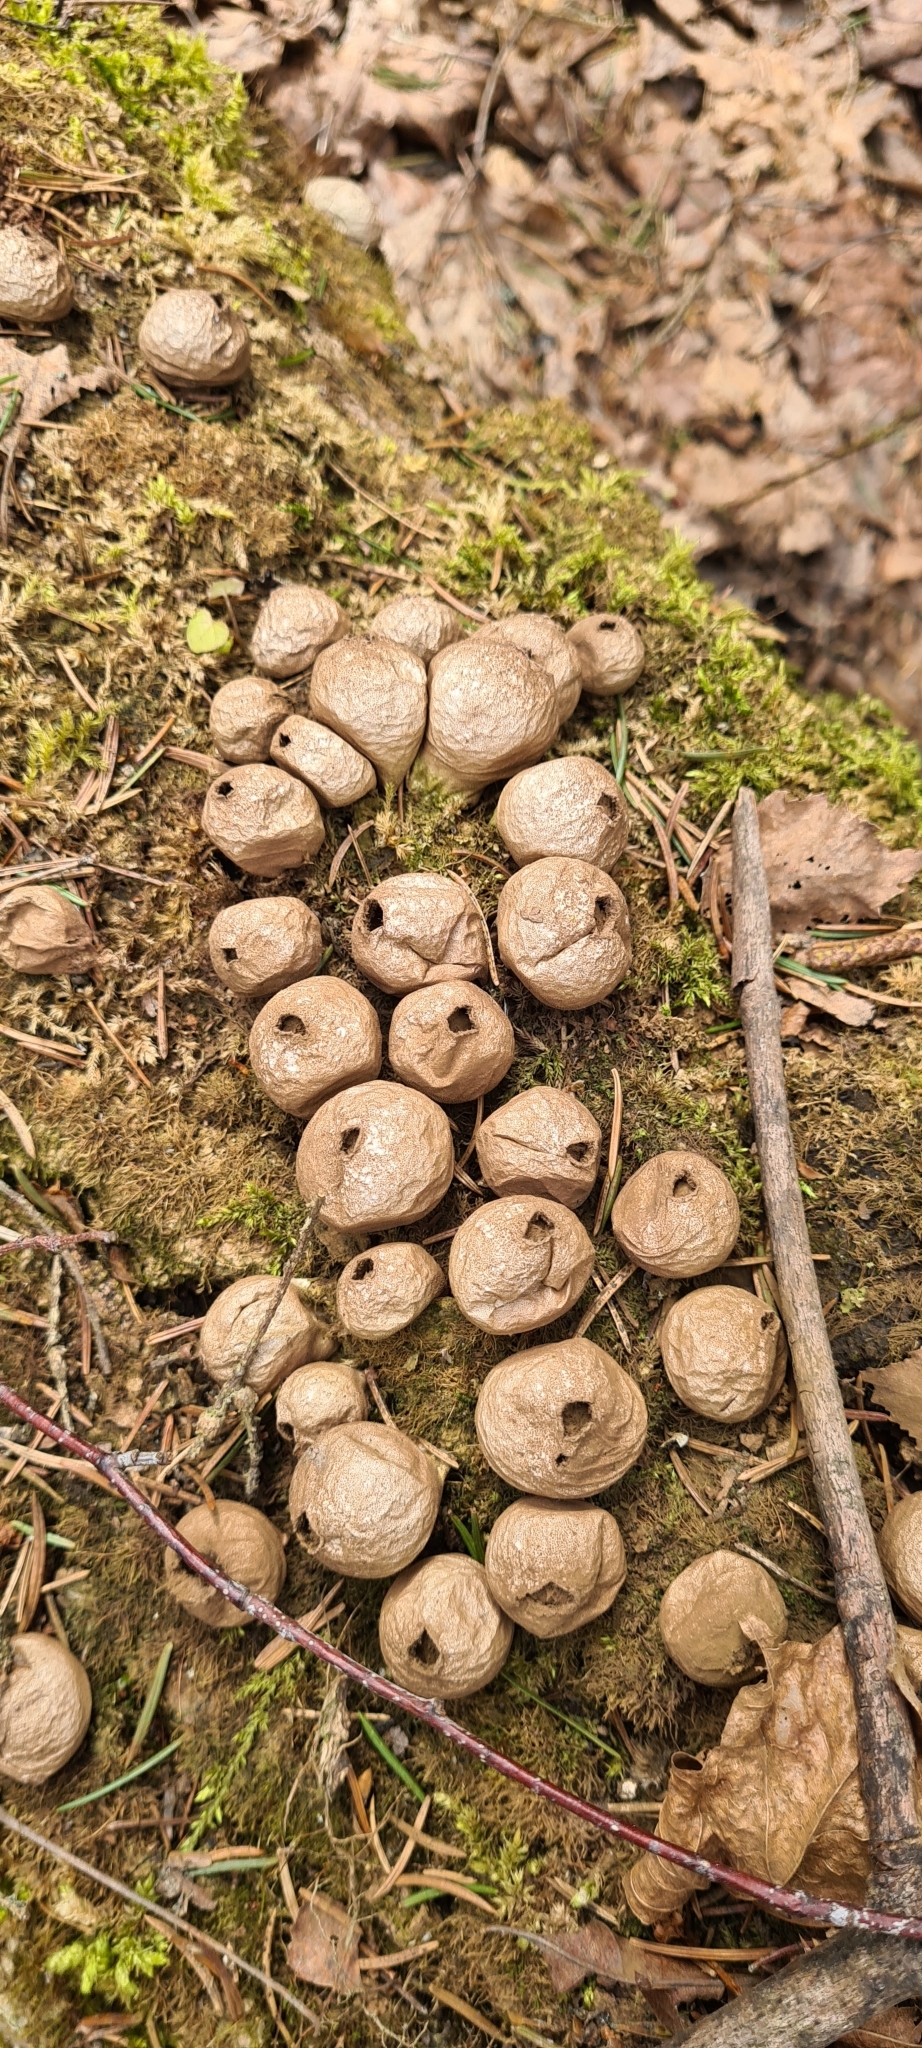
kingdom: Fungi
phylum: Basidiomycota
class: Agaricomycetes
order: Agaricales
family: Lycoperdaceae
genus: Apioperdon
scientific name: Apioperdon pyriforme
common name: Pear-shaped puffball
